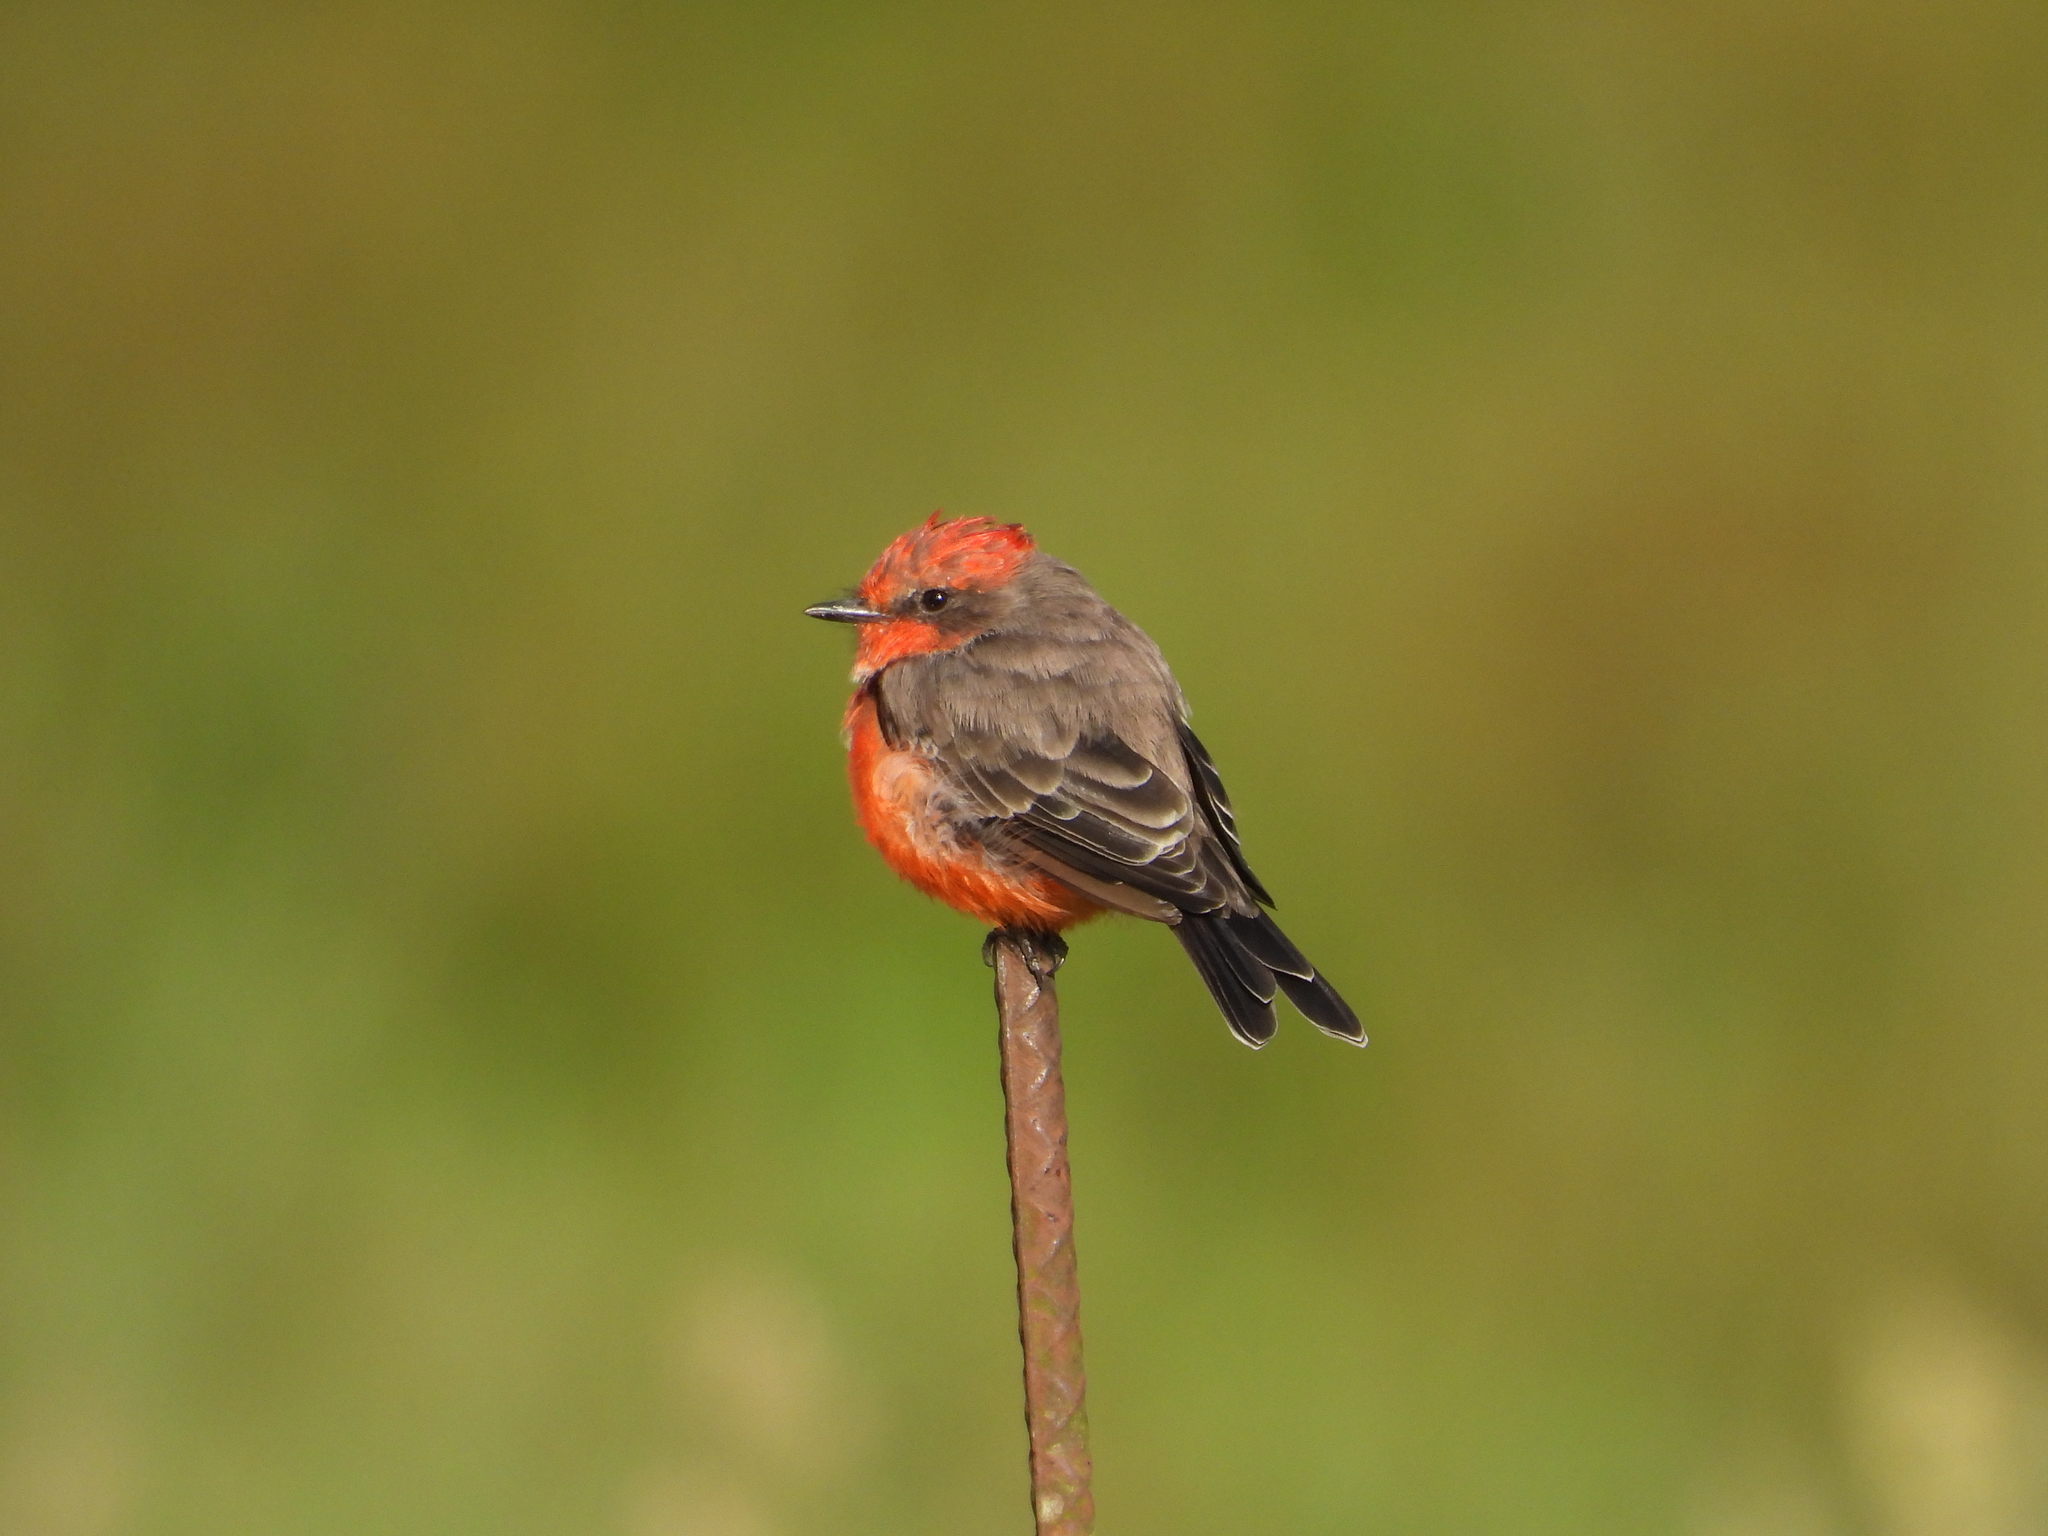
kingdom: Animalia
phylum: Chordata
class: Aves
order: Passeriformes
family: Tyrannidae
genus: Pyrocephalus
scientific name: Pyrocephalus rubinus
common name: Vermilion flycatcher
